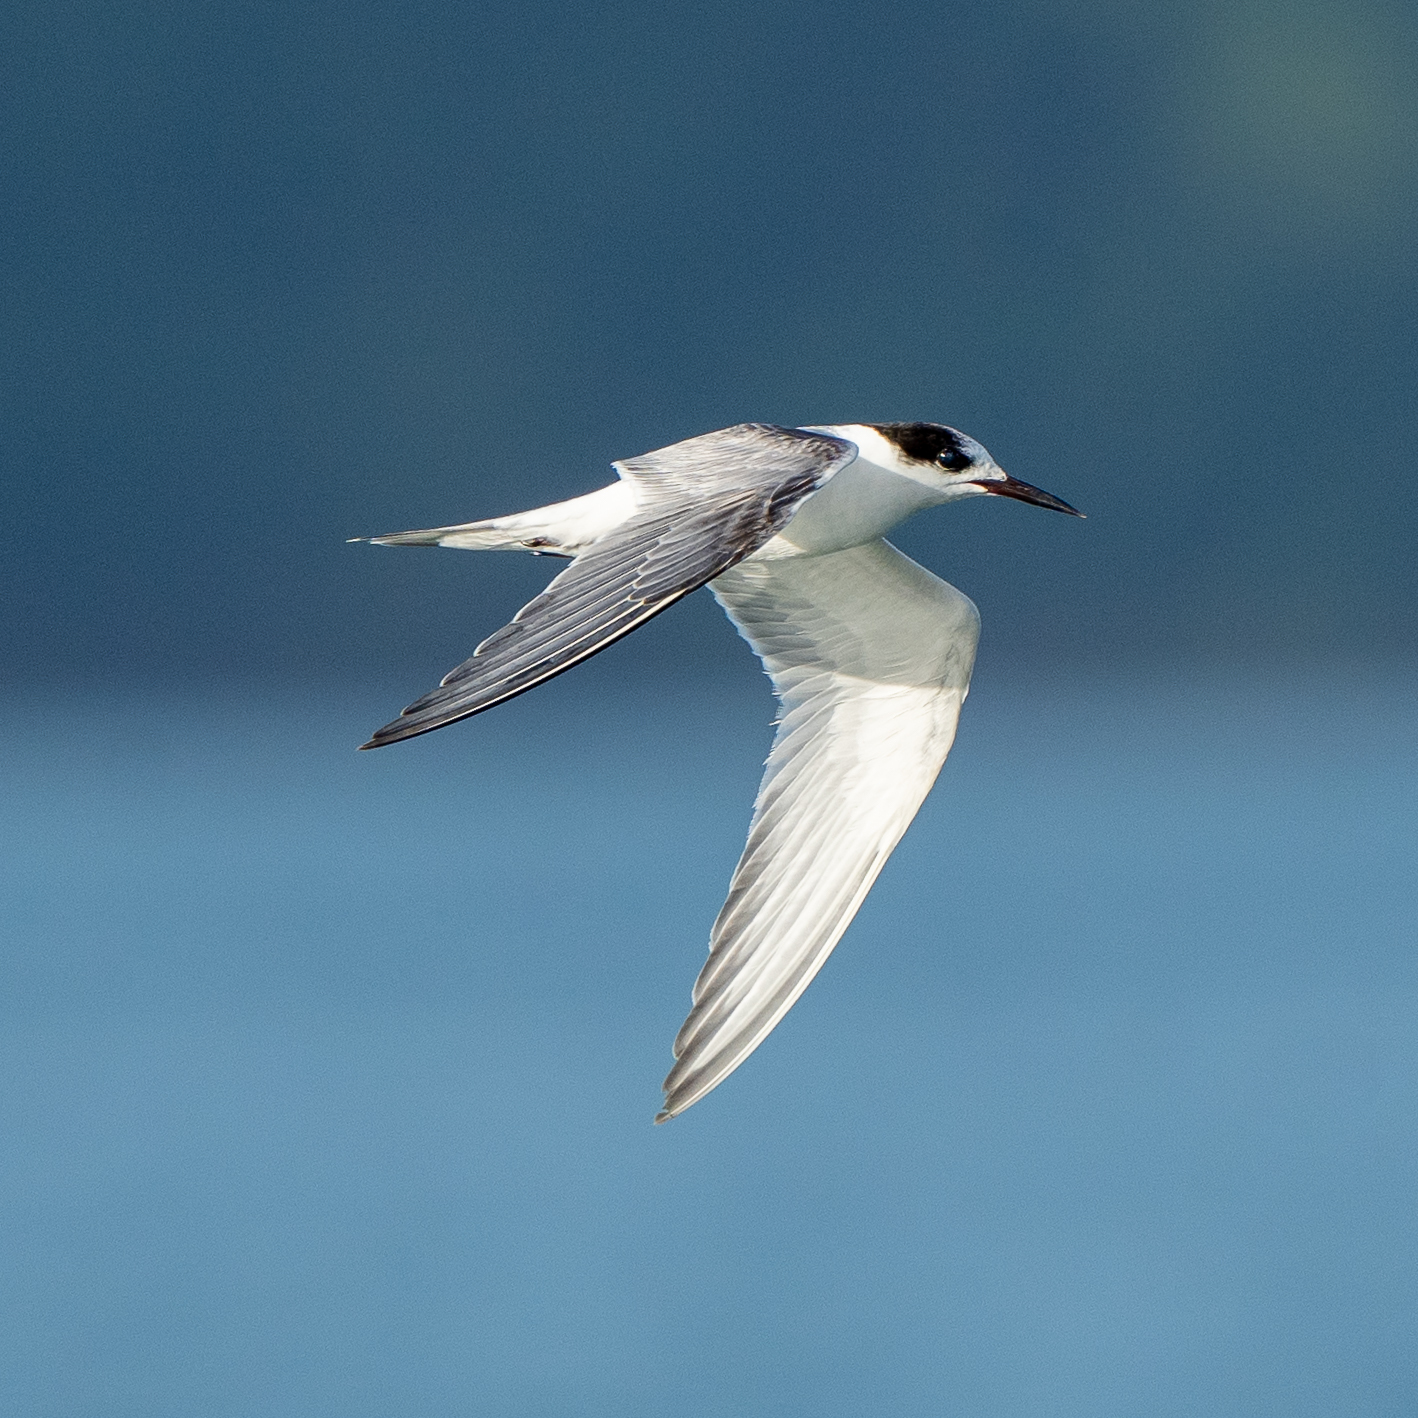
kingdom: Animalia
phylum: Chordata
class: Aves
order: Charadriiformes
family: Laridae
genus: Sterna
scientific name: Sterna hirundo
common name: Common tern
